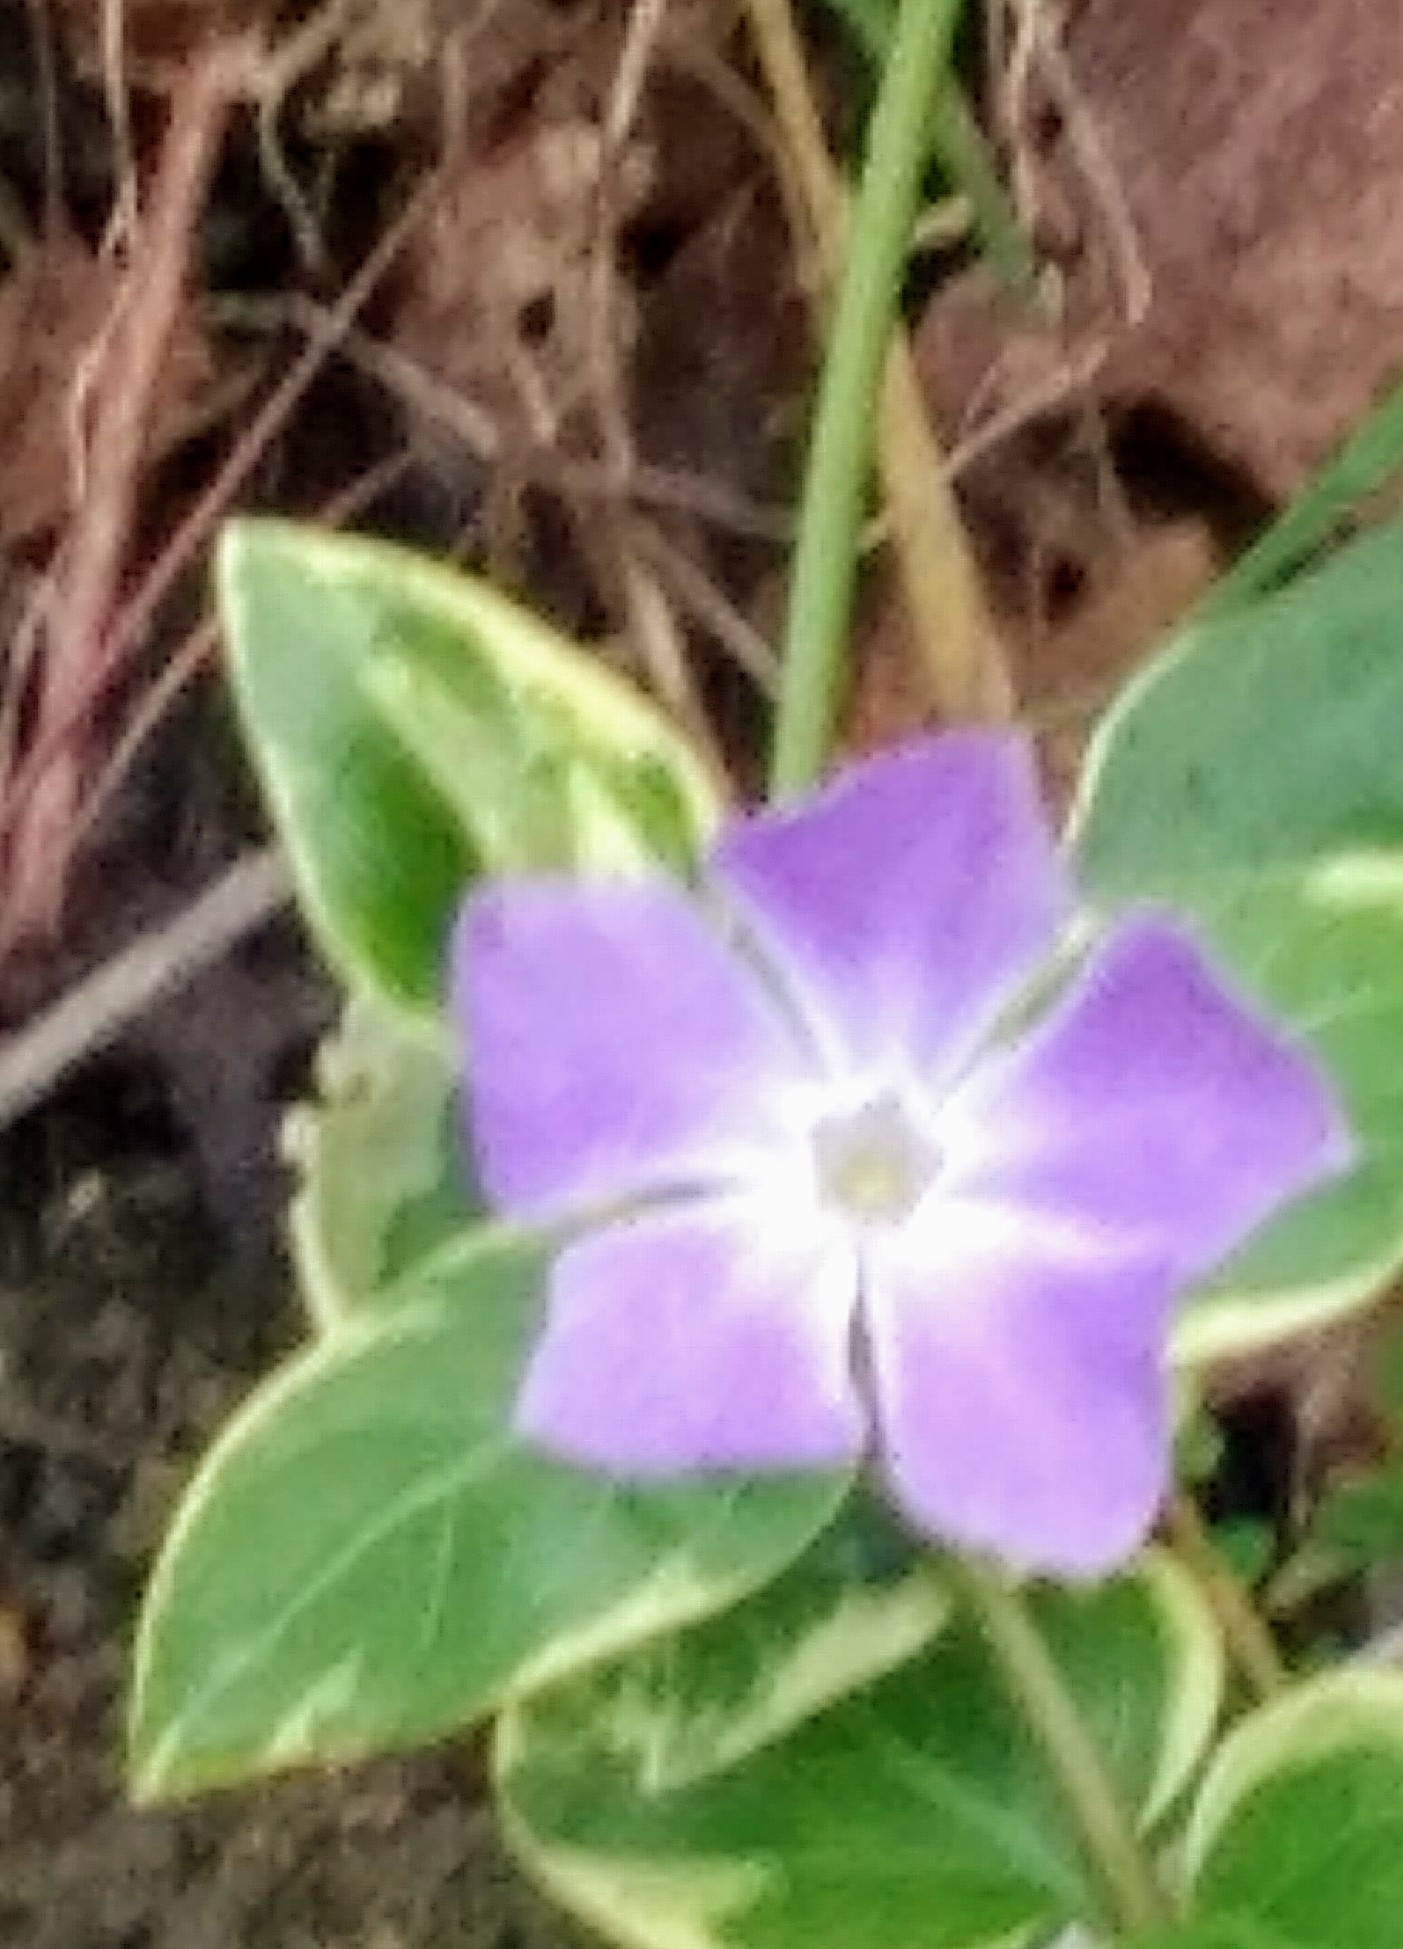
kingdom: Plantae
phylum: Tracheophyta
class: Magnoliopsida
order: Gentianales
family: Apocynaceae
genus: Vinca
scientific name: Vinca major
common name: Greater periwinkle
